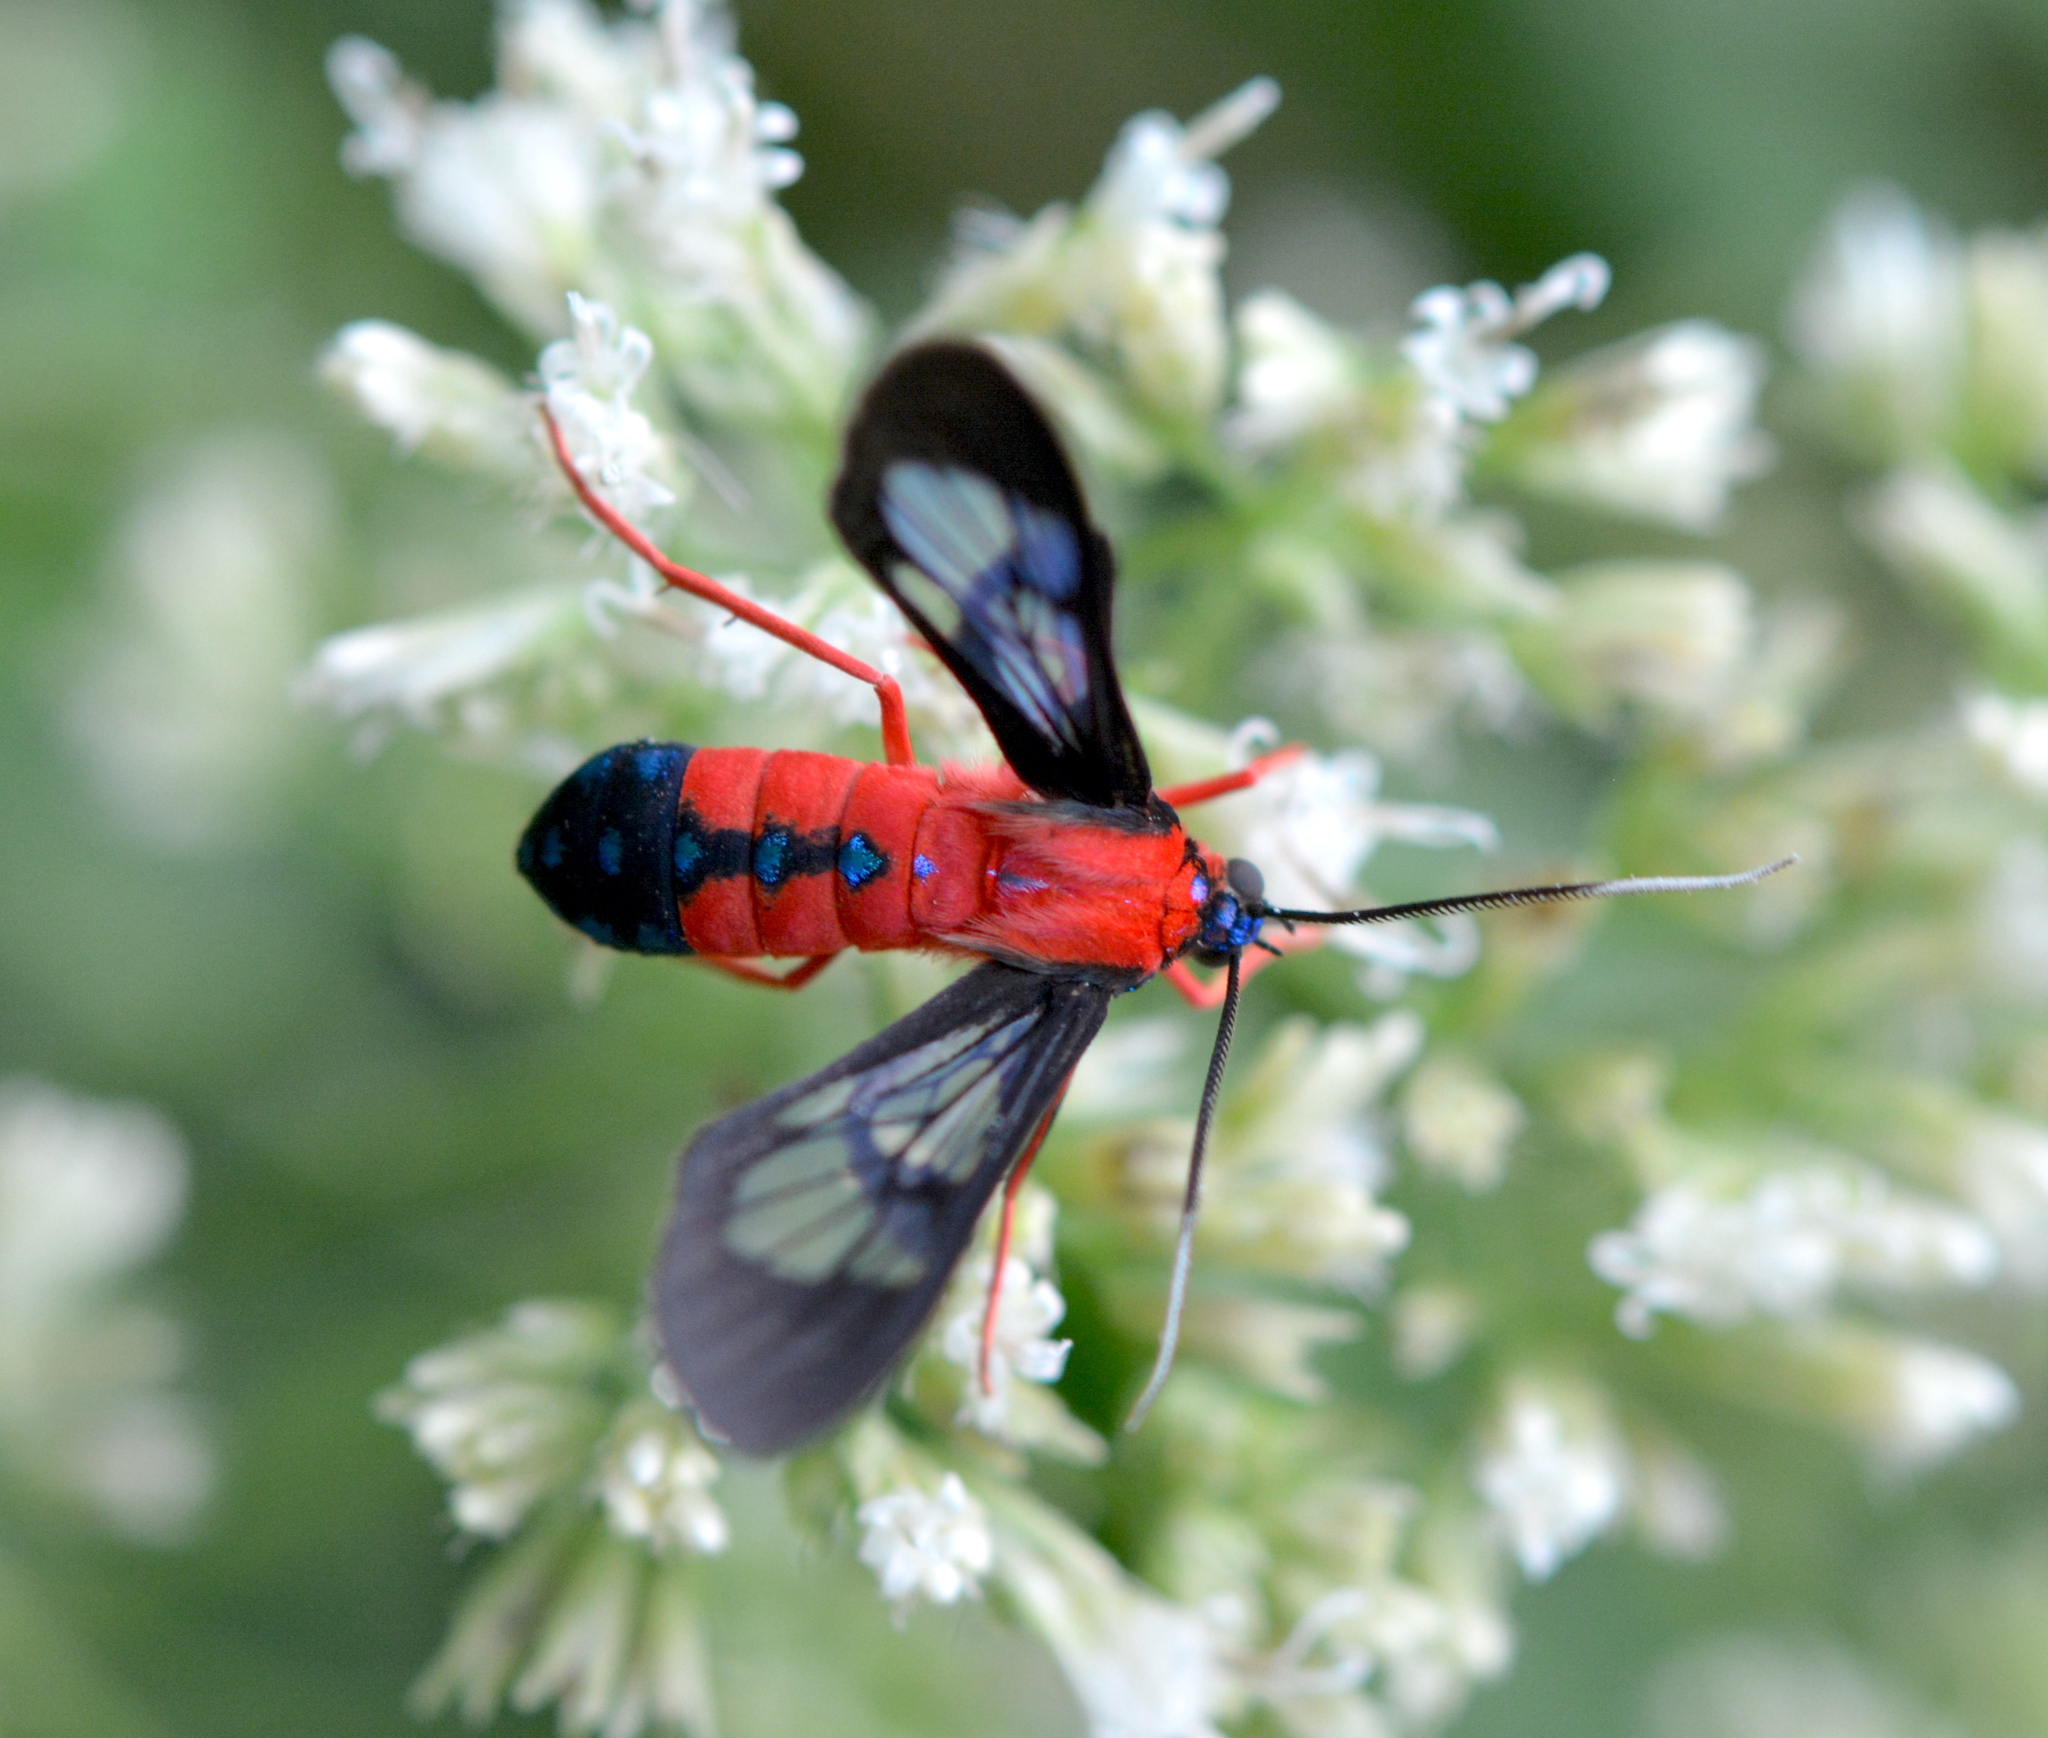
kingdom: Animalia
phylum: Arthropoda
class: Insecta
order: Lepidoptera
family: Erebidae
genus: Cosmosoma
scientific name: Cosmosoma myrodora
